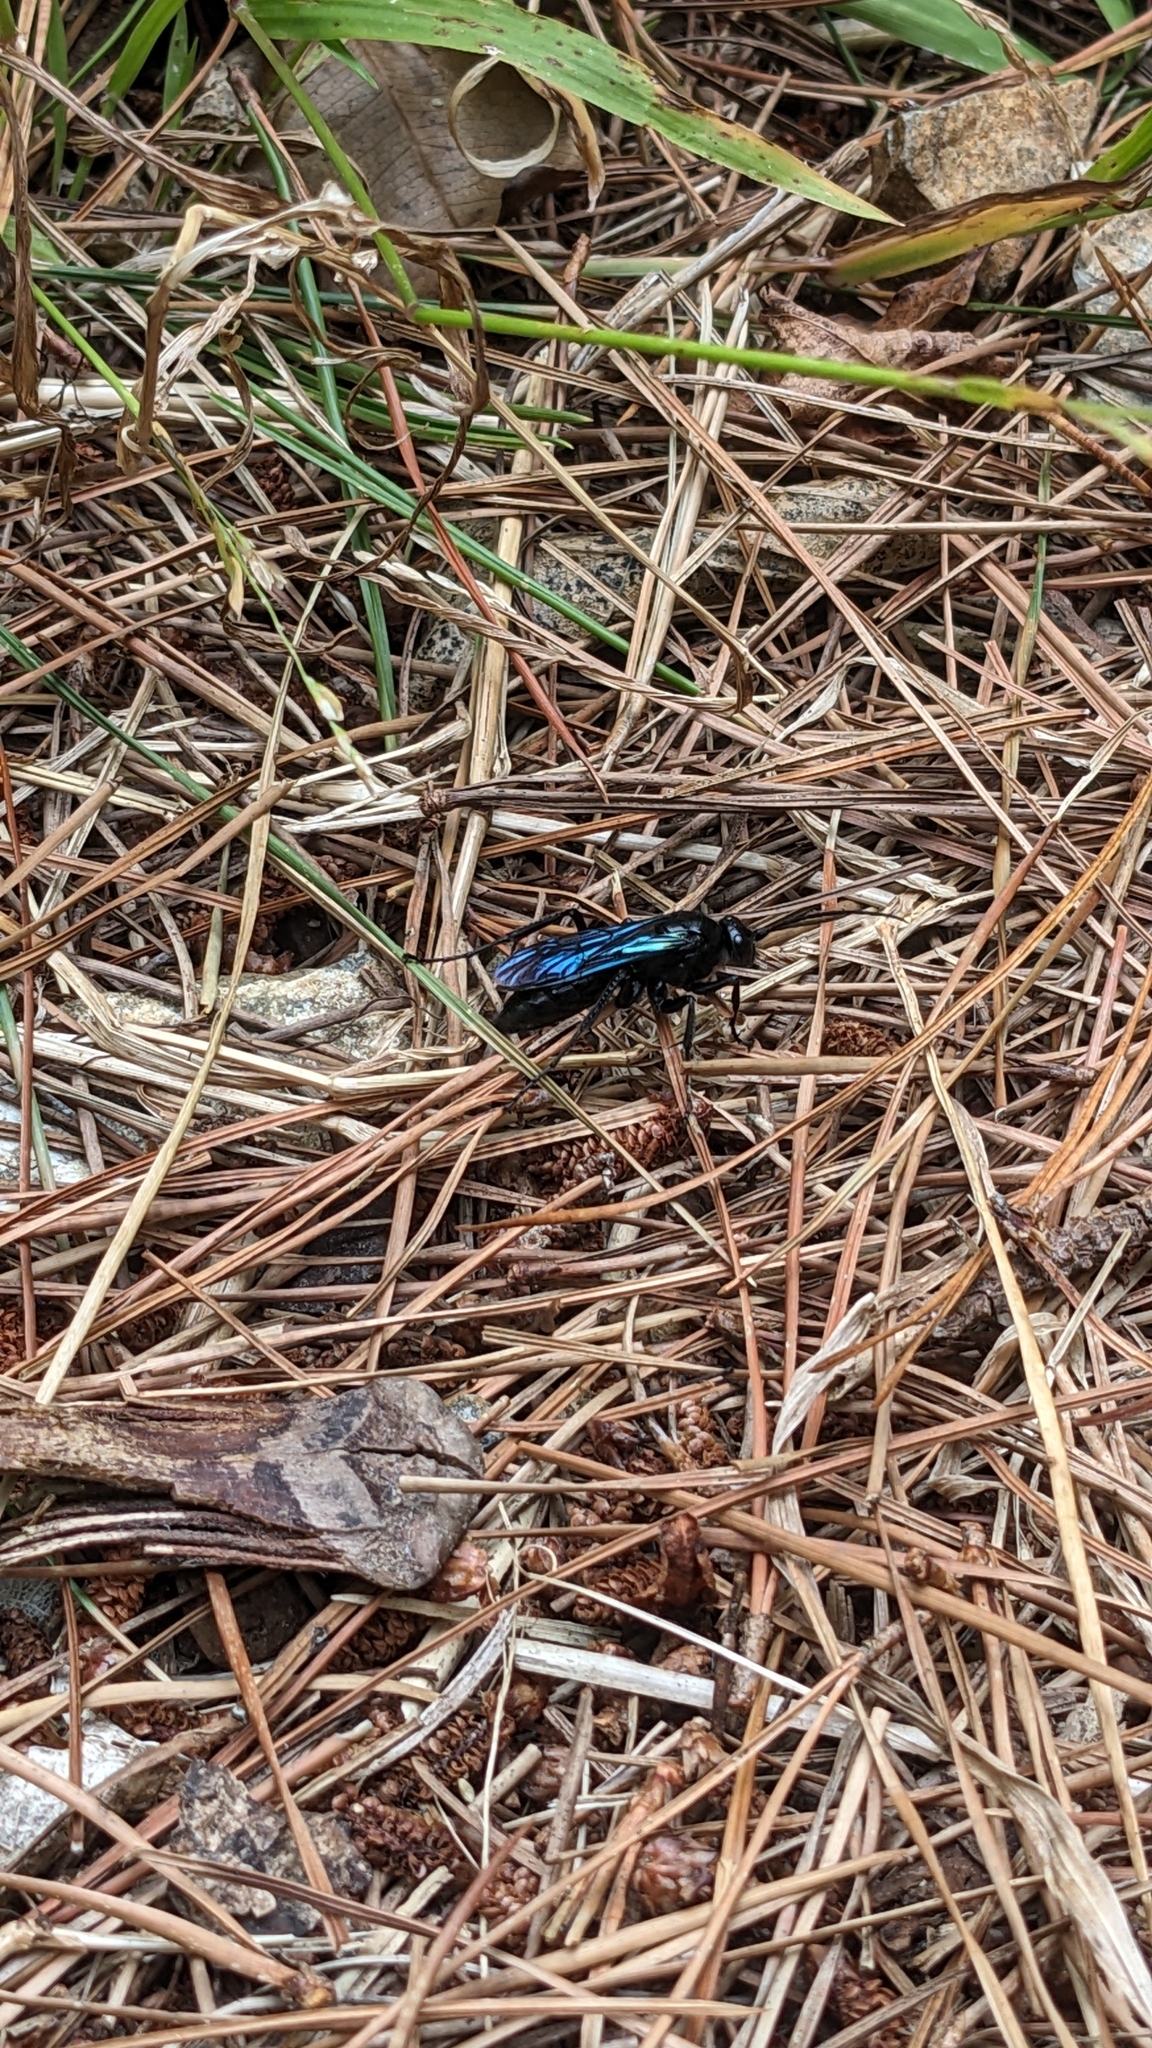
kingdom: Animalia
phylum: Arthropoda
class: Insecta
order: Hymenoptera
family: Pompilidae
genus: Priocnemis
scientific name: Priocnemis monachus
